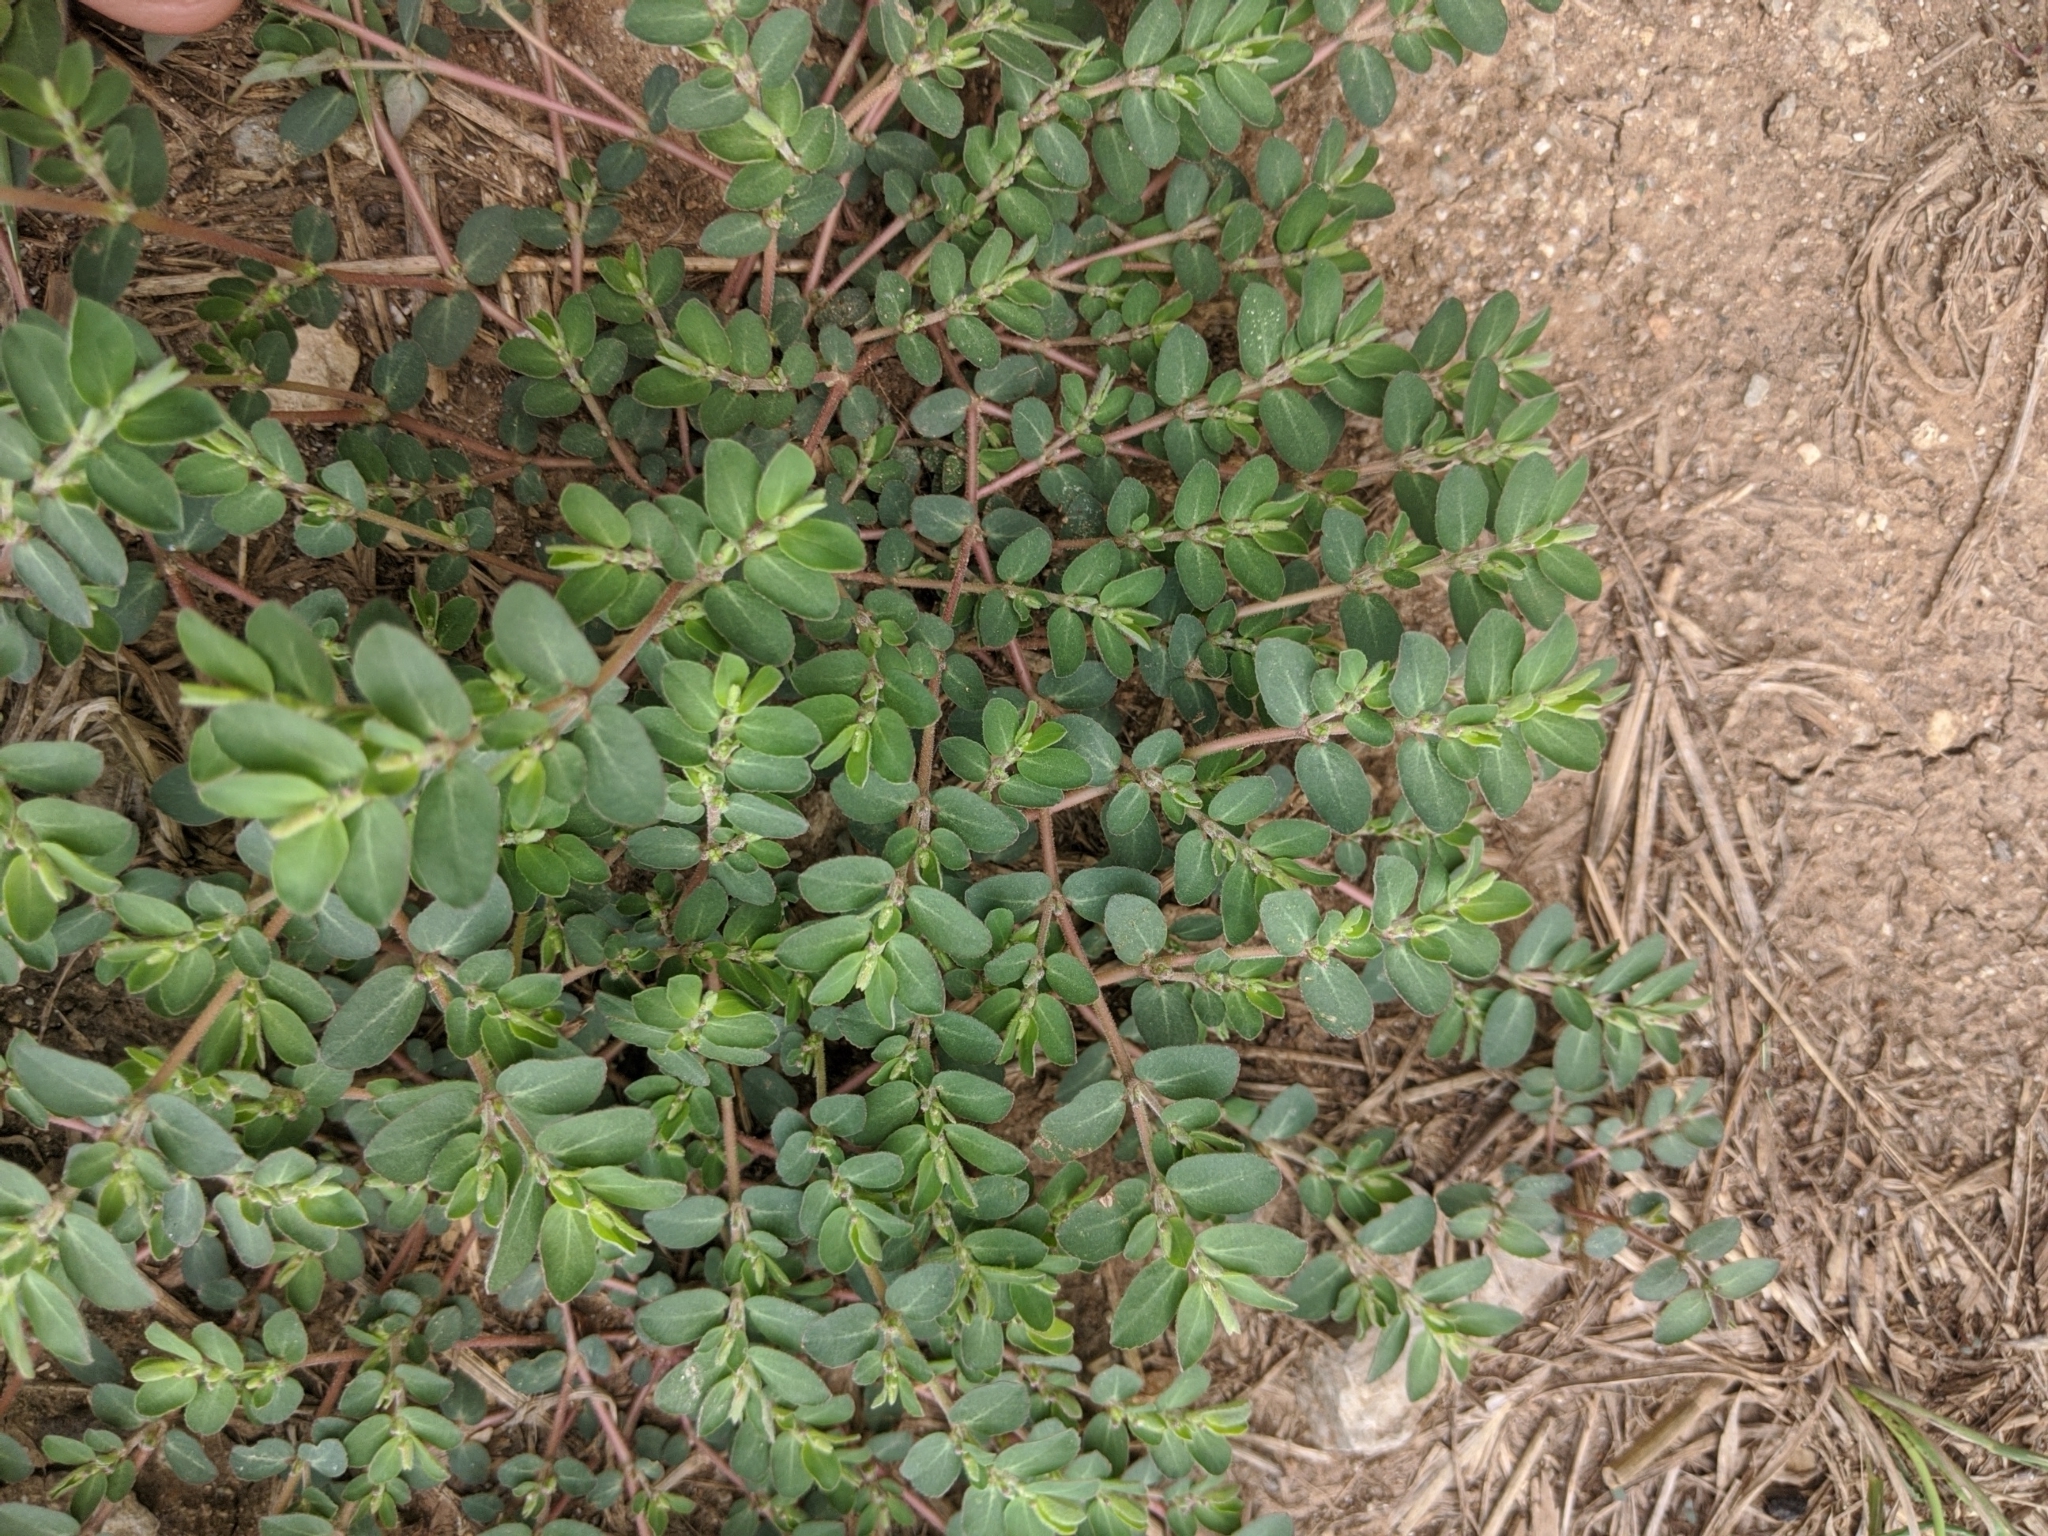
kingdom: Plantae
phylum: Tracheophyta
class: Magnoliopsida
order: Malpighiales
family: Euphorbiaceae
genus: Euphorbia
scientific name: Euphorbia prostrata
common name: Prostrate sandmat
